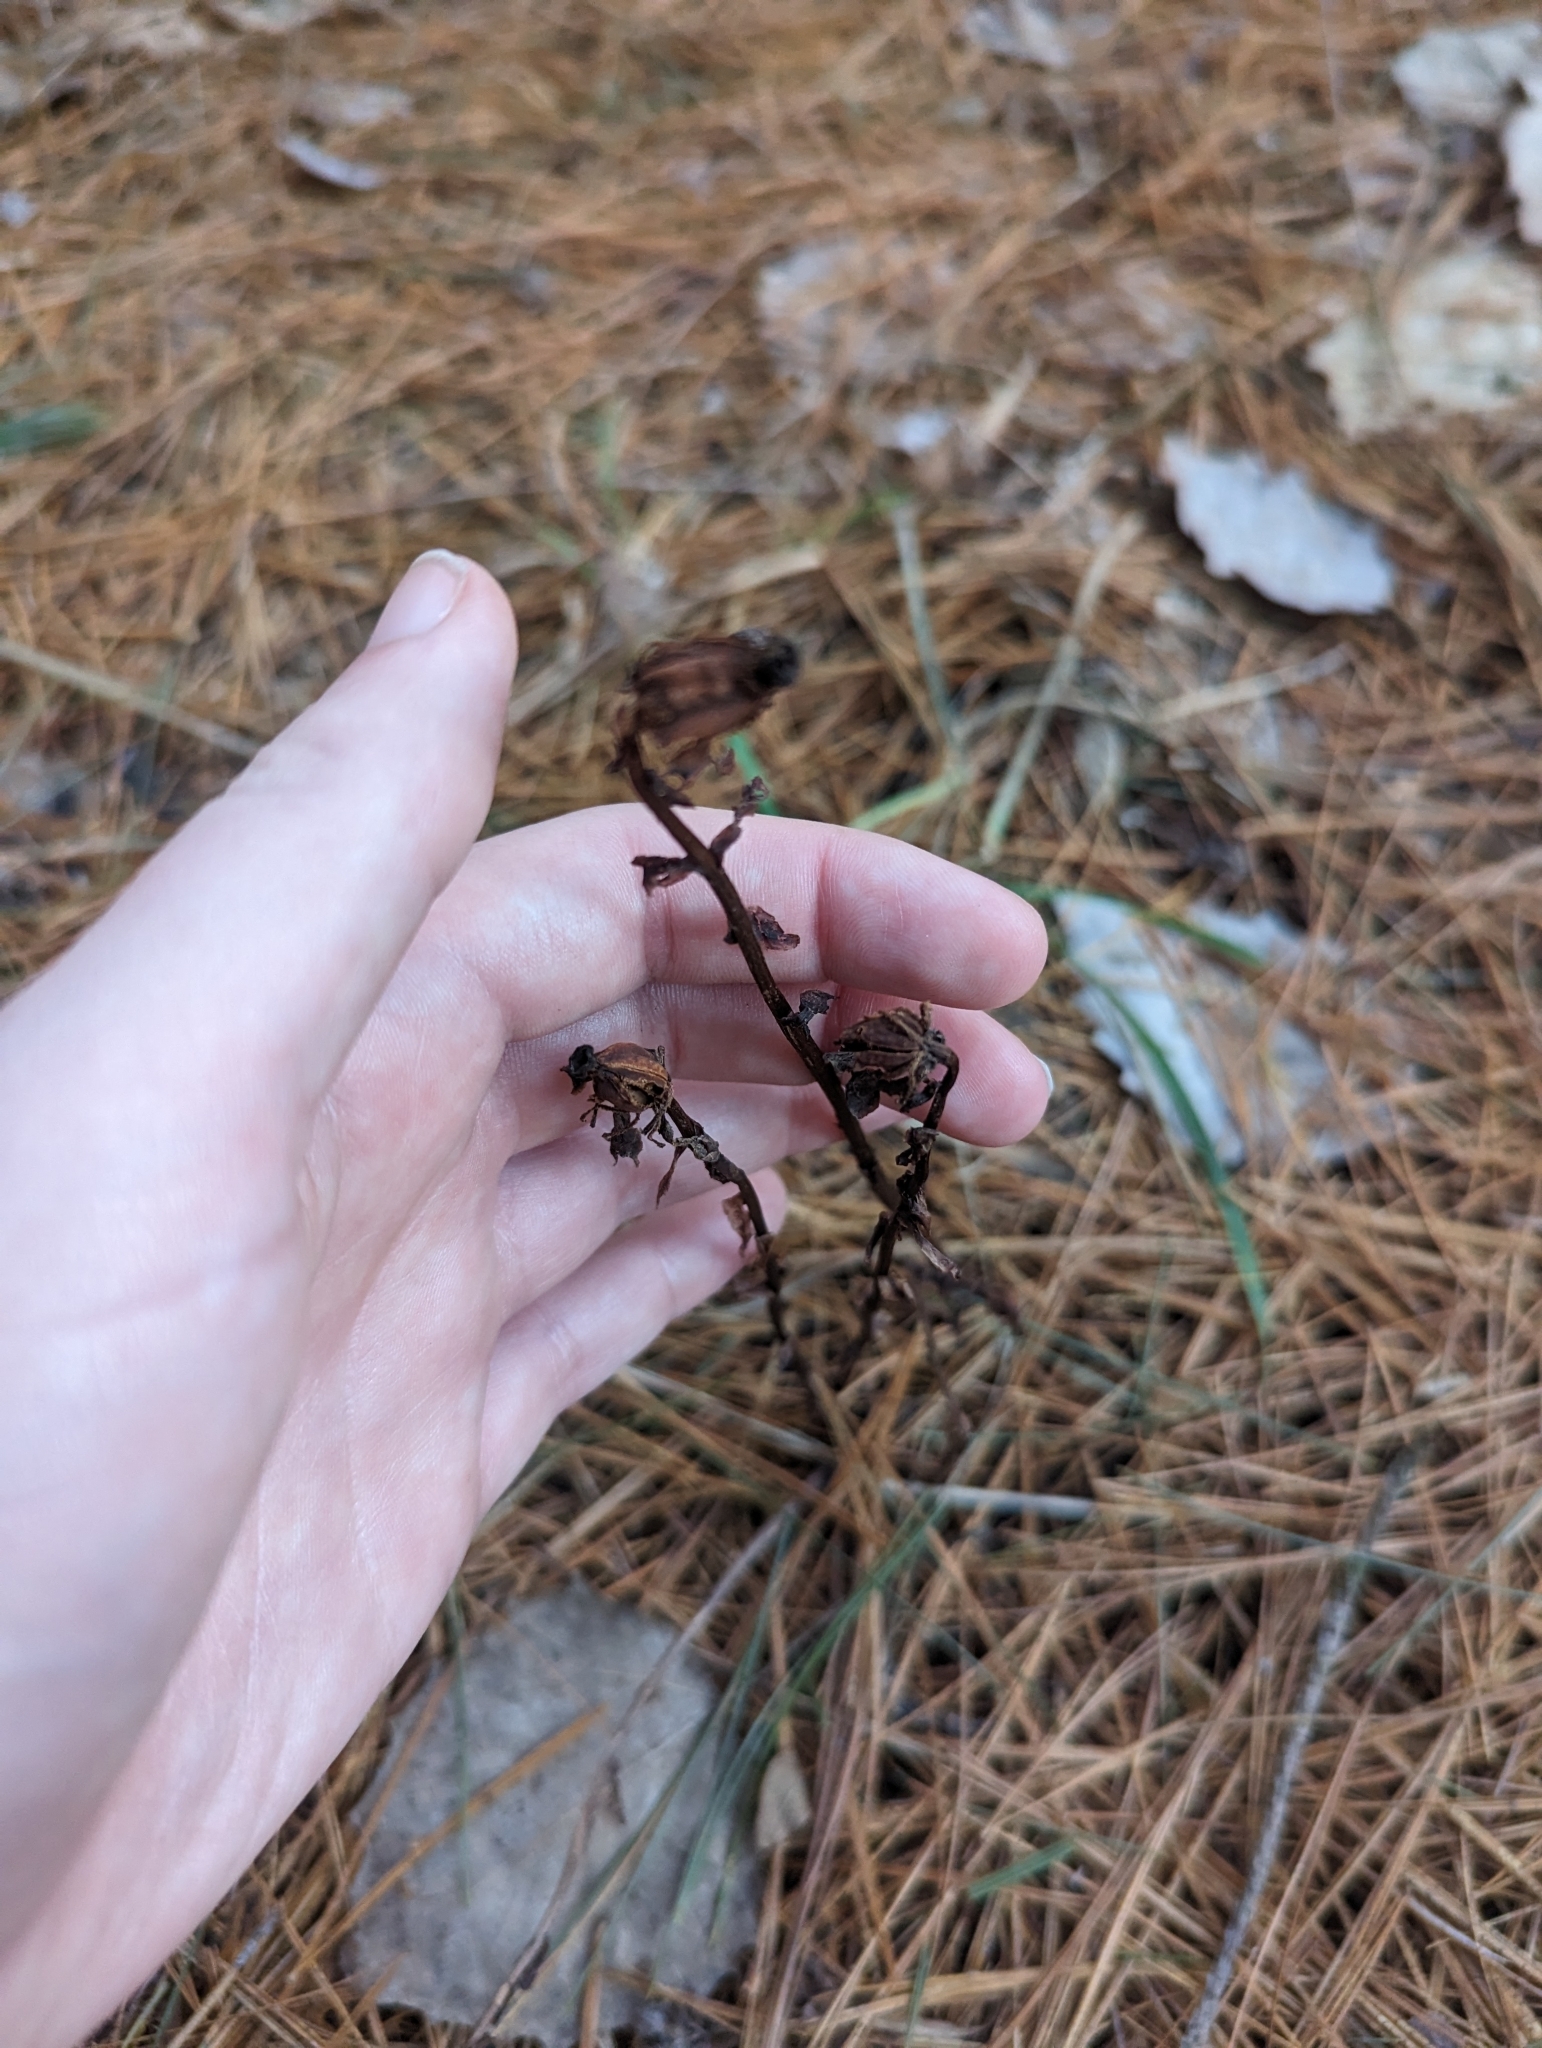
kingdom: Plantae
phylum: Tracheophyta
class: Magnoliopsida
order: Ericales
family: Ericaceae
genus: Monotropa
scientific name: Monotropa uniflora
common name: Convulsion root
